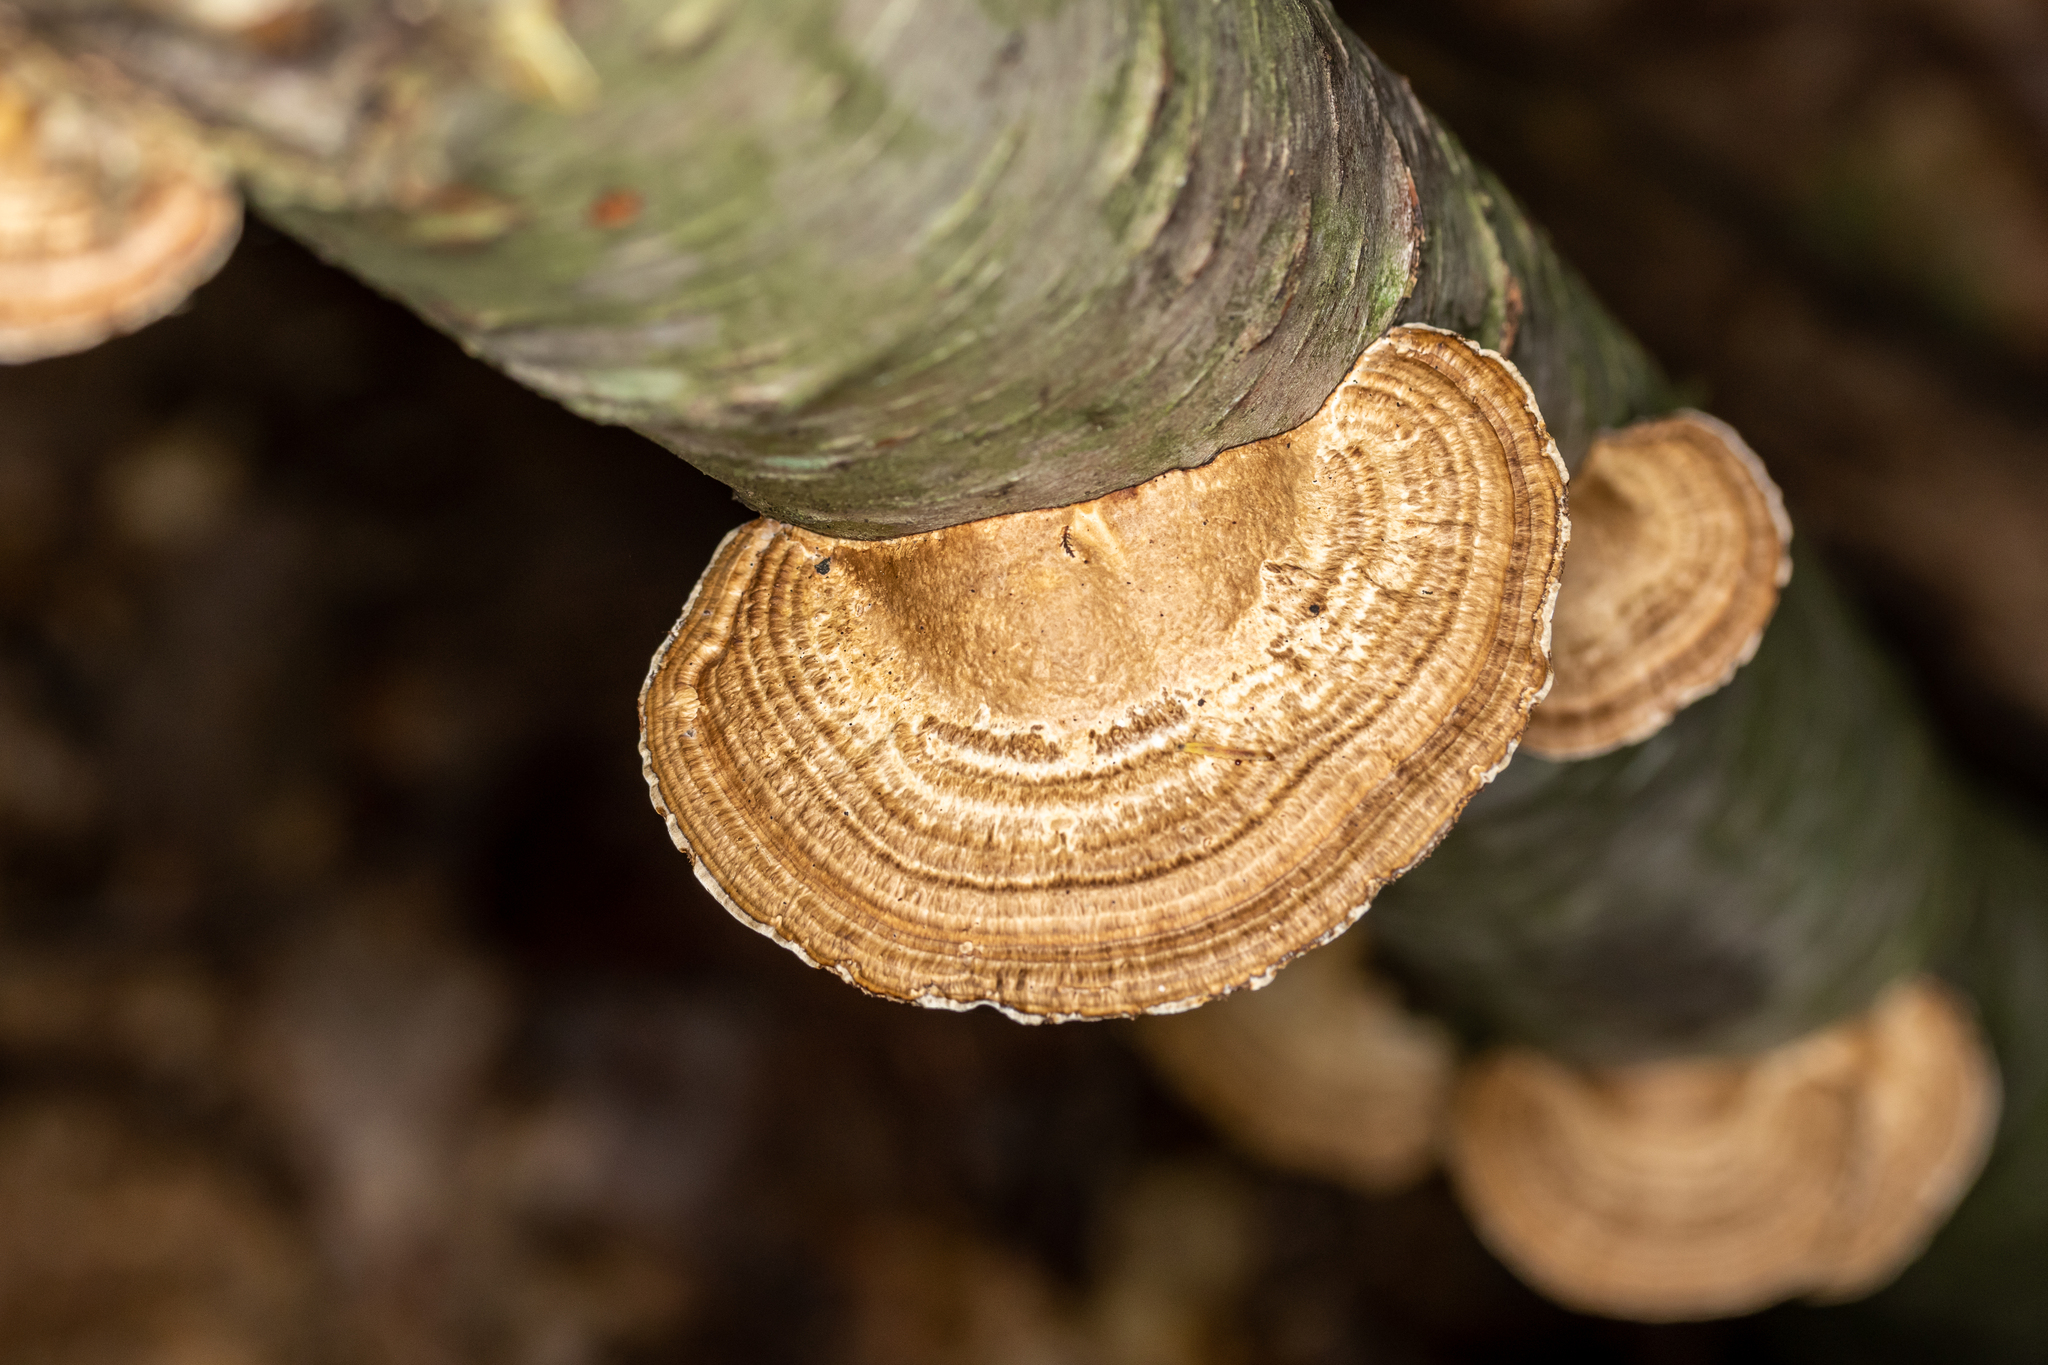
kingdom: Fungi
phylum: Basidiomycota
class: Agaricomycetes
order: Polyporales
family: Polyporaceae
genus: Daedaleopsis
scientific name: Daedaleopsis confragosa
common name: Blushing bracket
